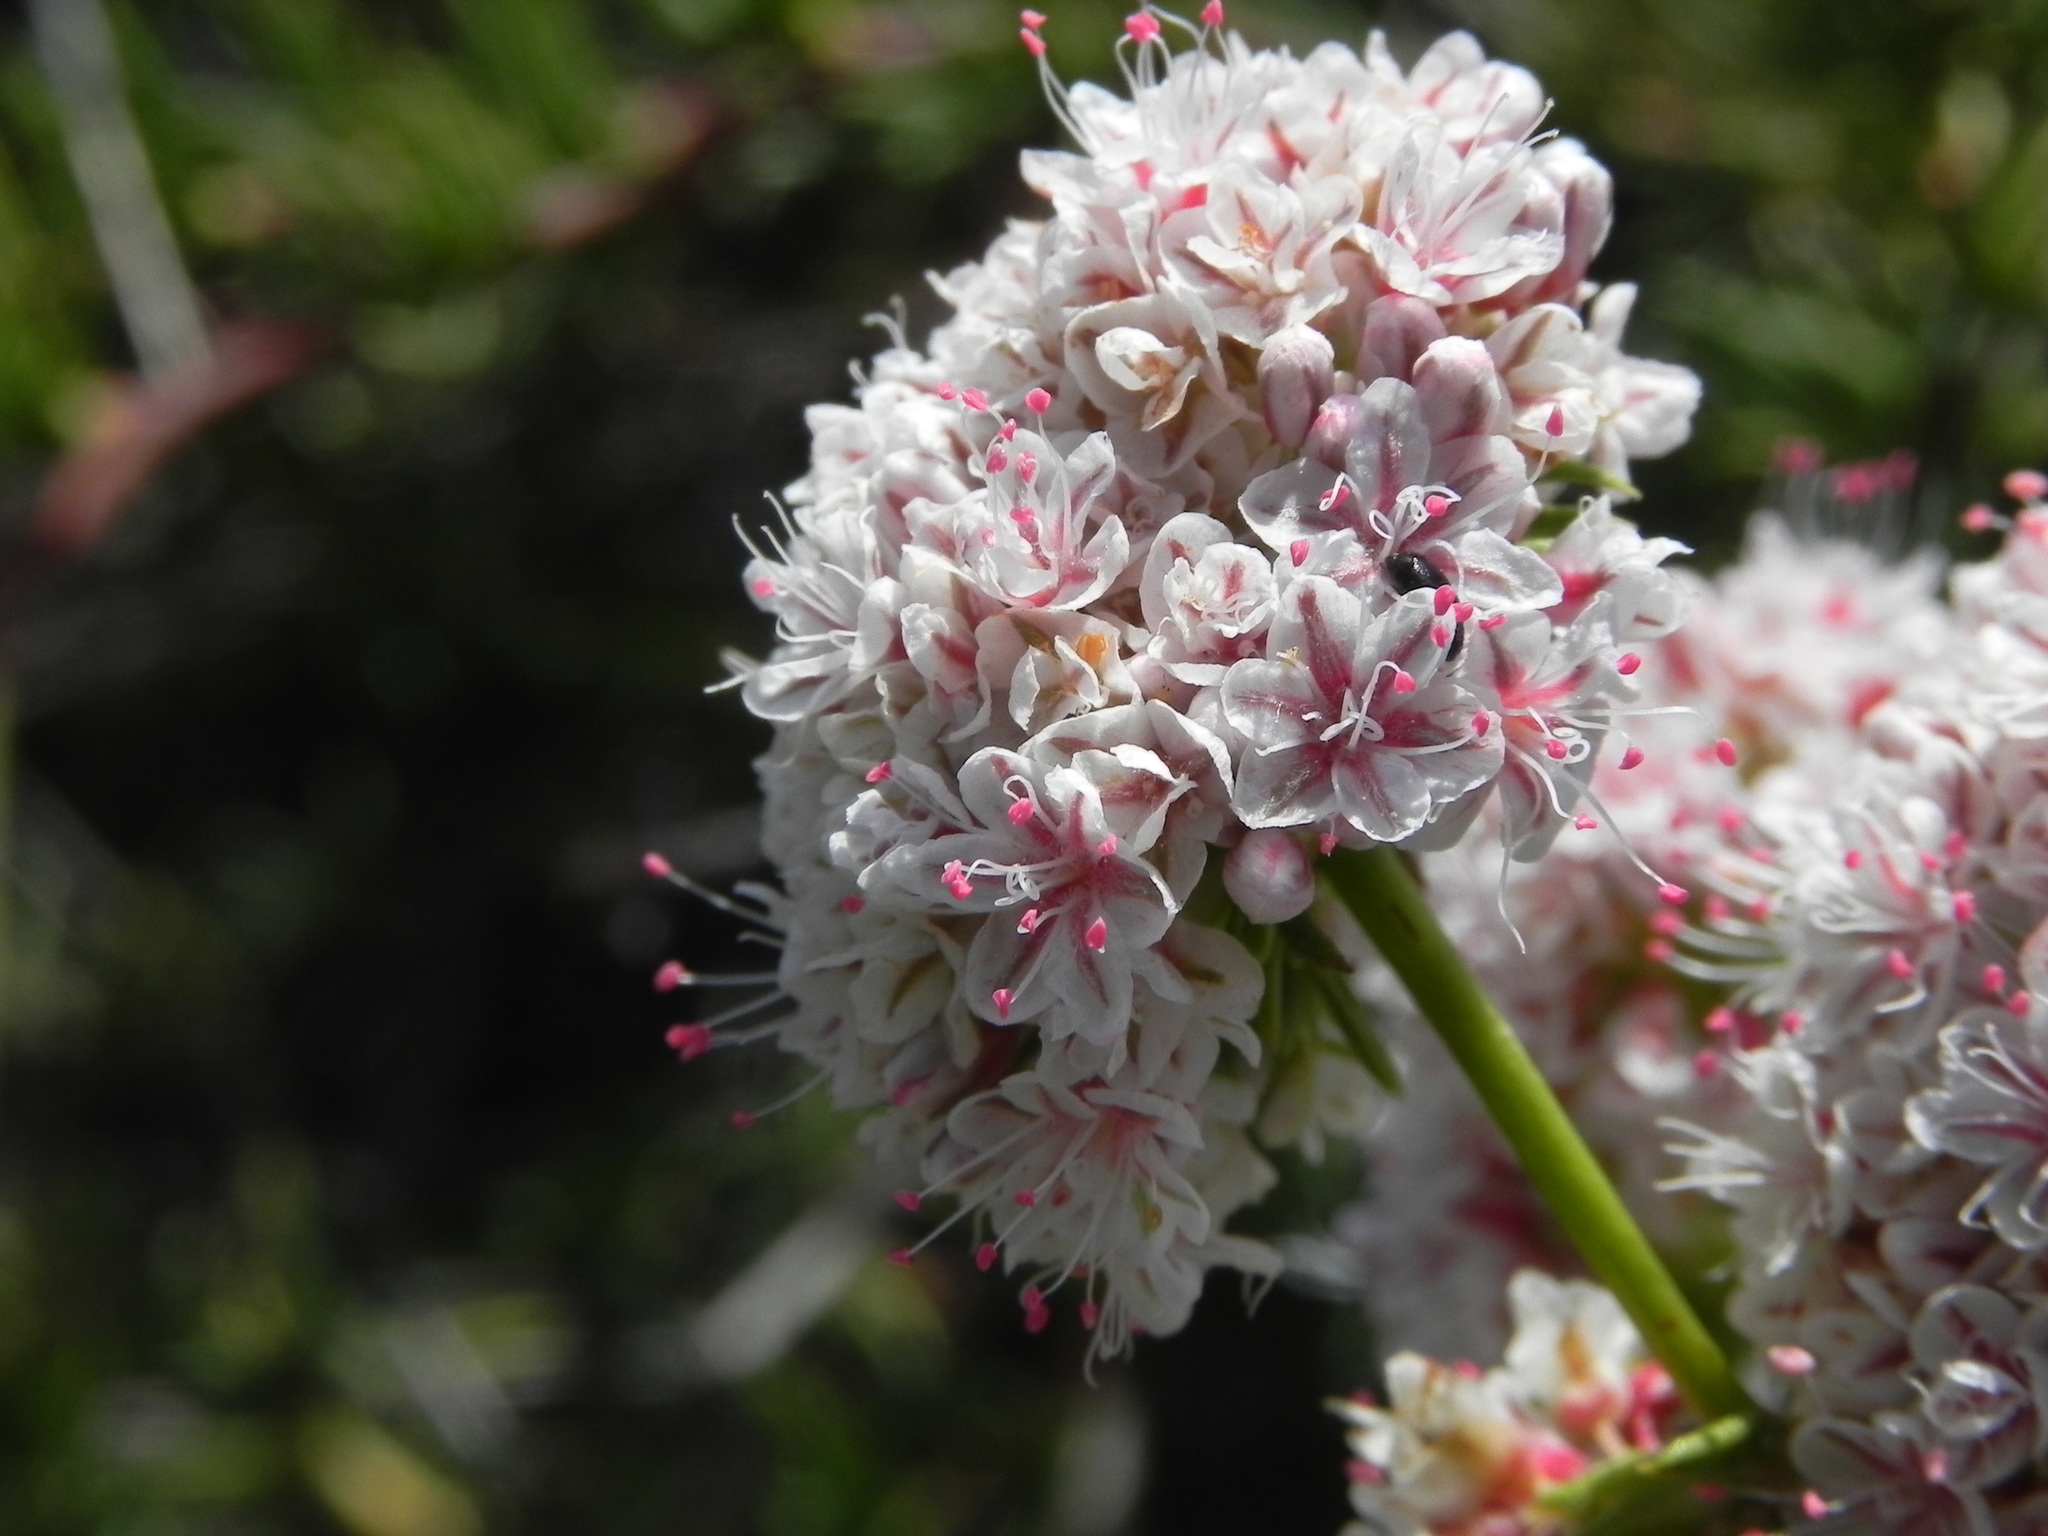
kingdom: Plantae
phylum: Tracheophyta
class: Magnoliopsida
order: Caryophyllales
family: Polygonaceae
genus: Eriogonum
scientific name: Eriogonum fasciculatum
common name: California wild buckwheat
